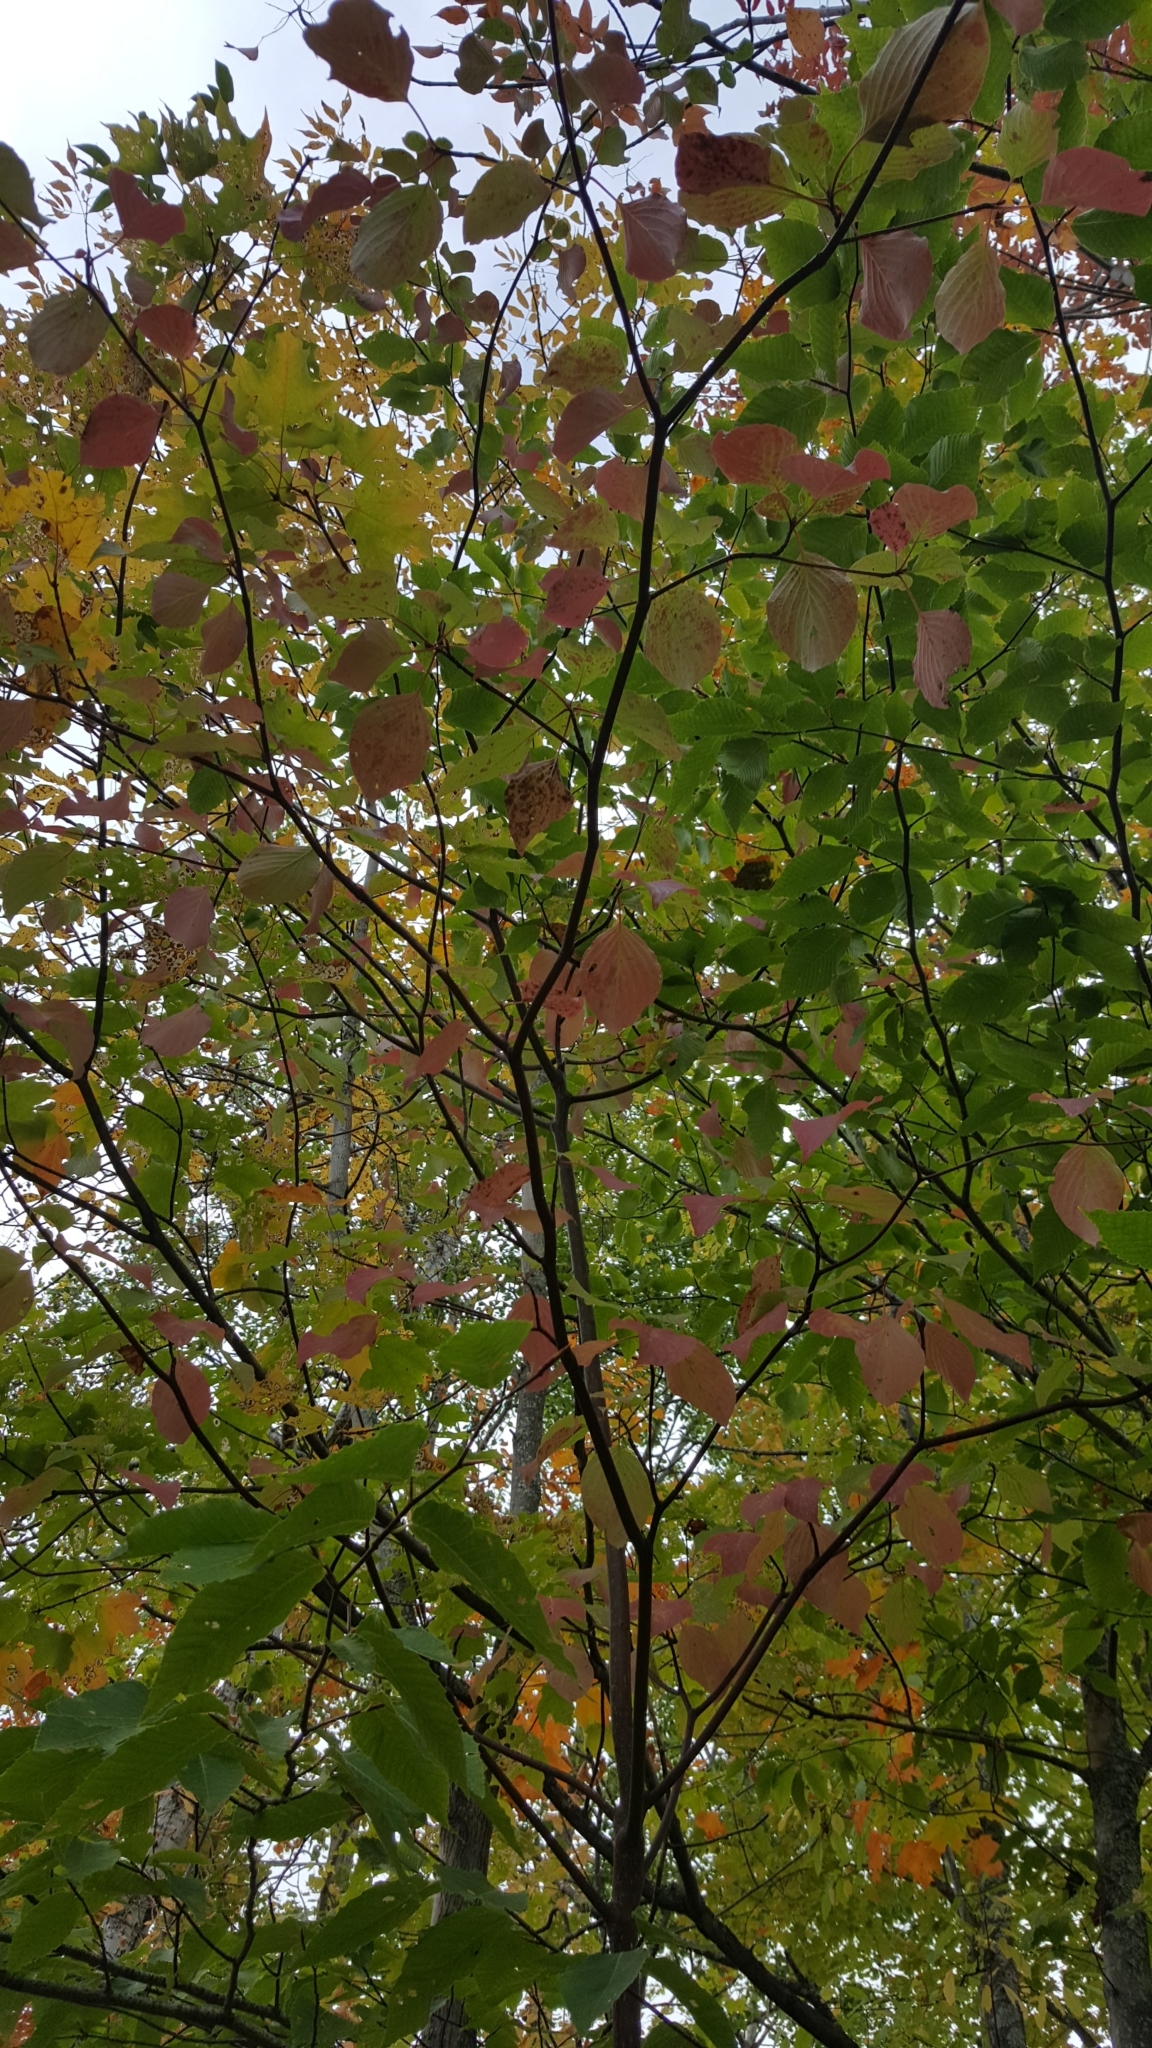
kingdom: Plantae
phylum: Tracheophyta
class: Magnoliopsida
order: Cornales
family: Cornaceae
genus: Cornus
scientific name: Cornus alternifolia
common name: Pagoda dogwood
